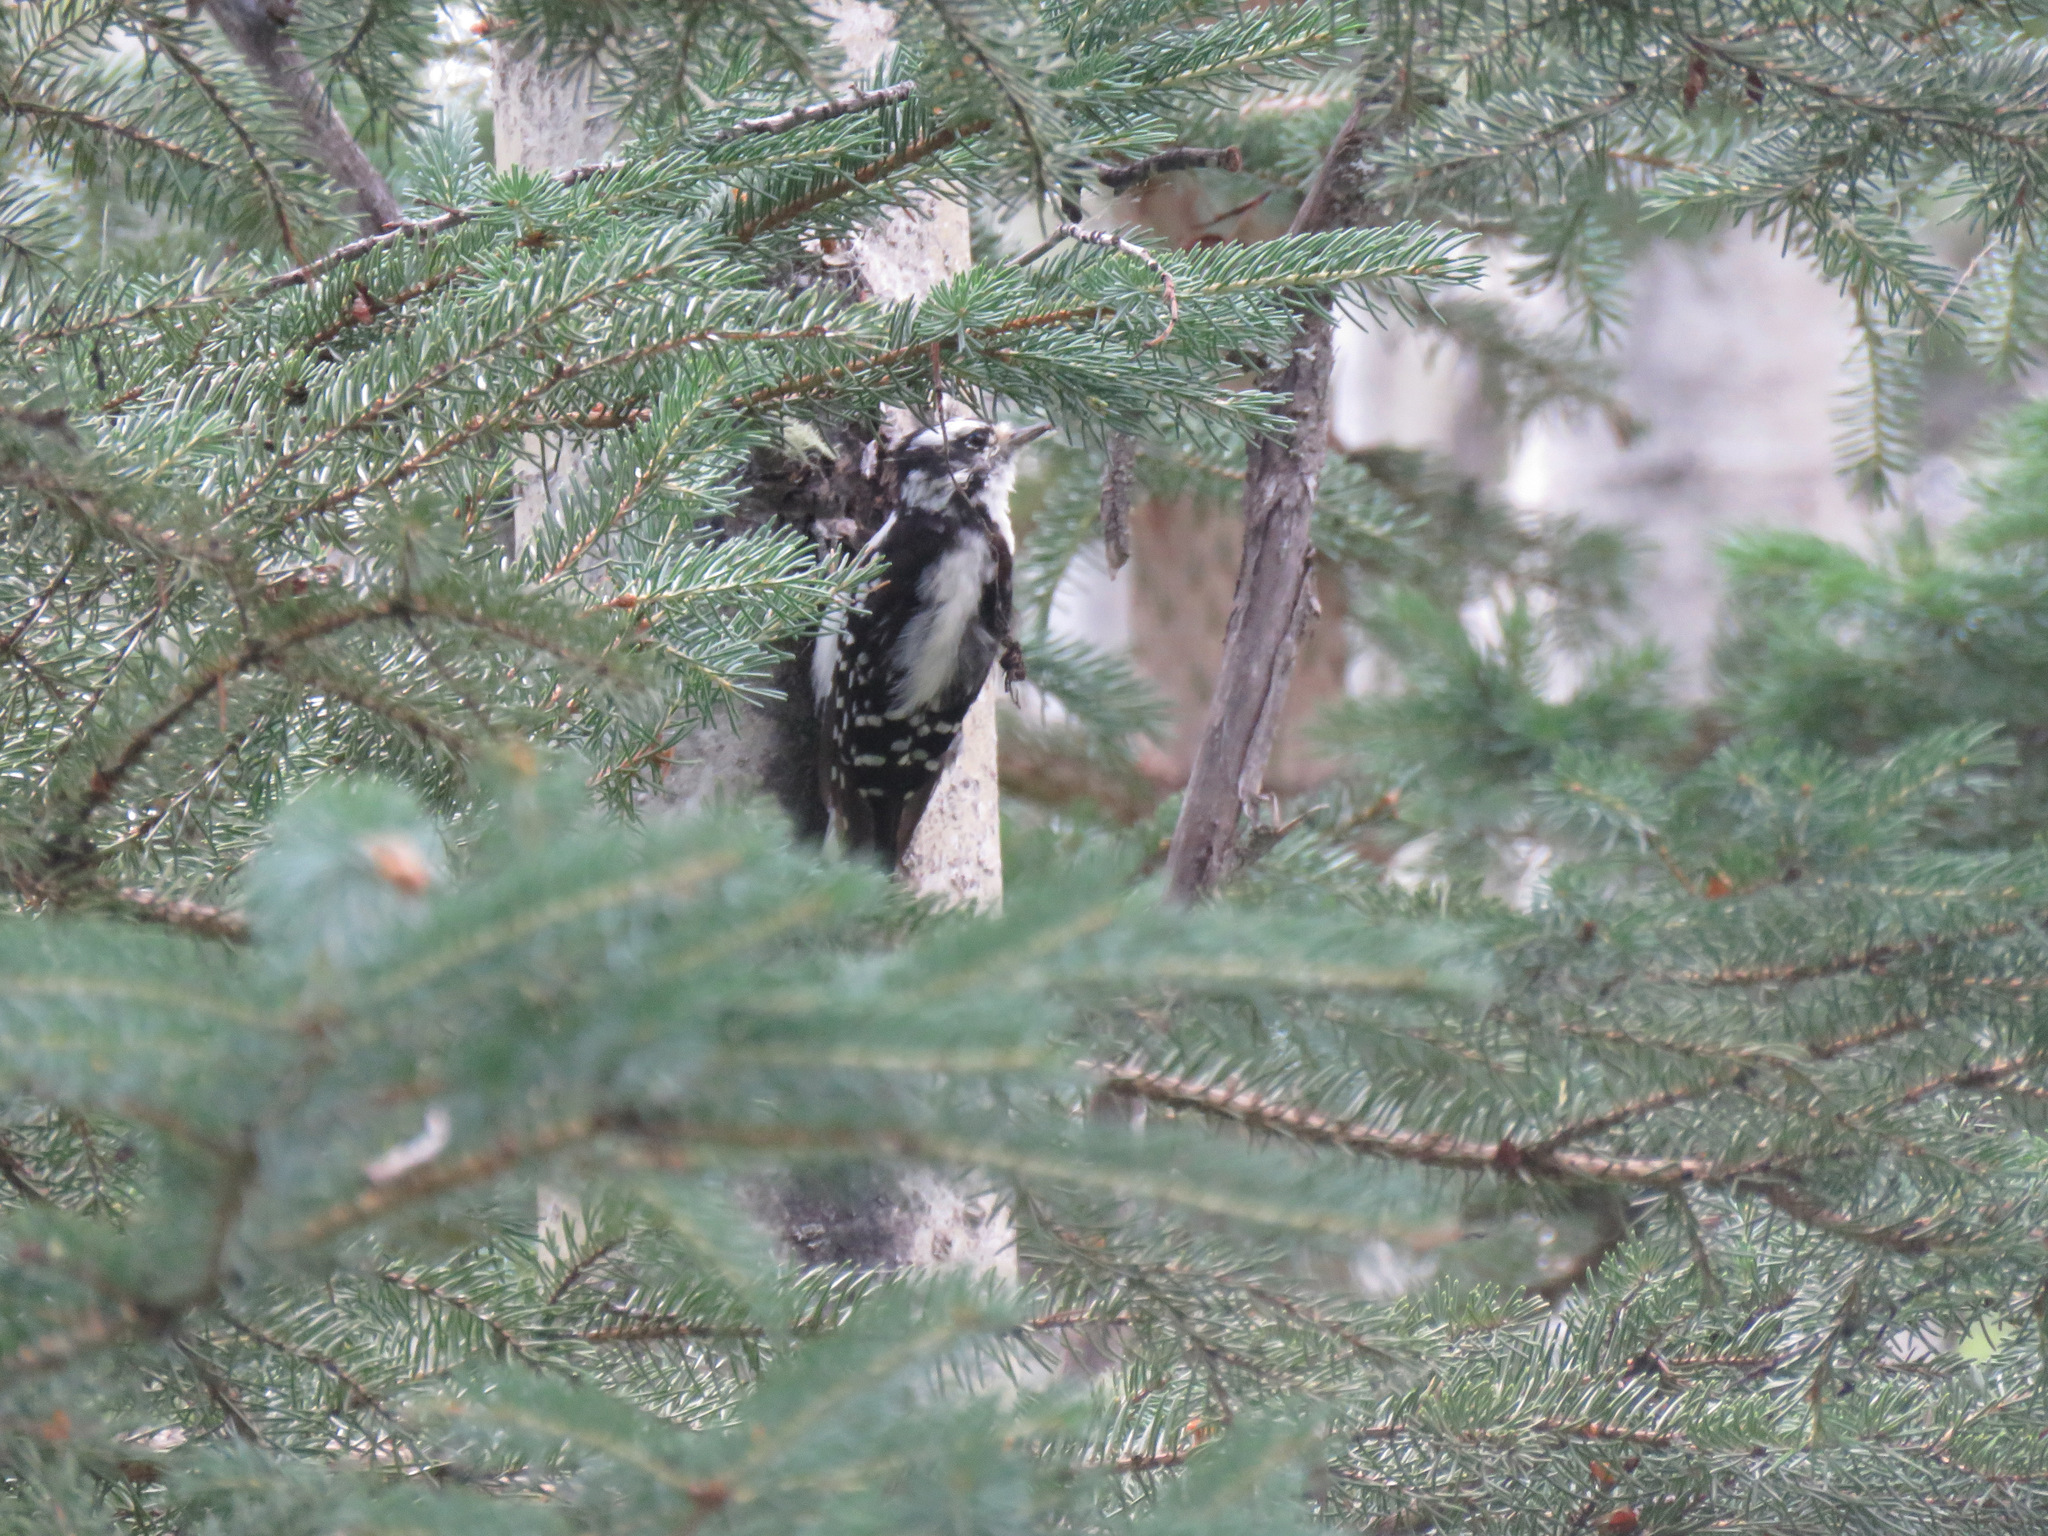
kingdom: Animalia
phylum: Chordata
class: Aves
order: Piciformes
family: Picidae
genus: Dryobates
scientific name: Dryobates pubescens
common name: Downy woodpecker
